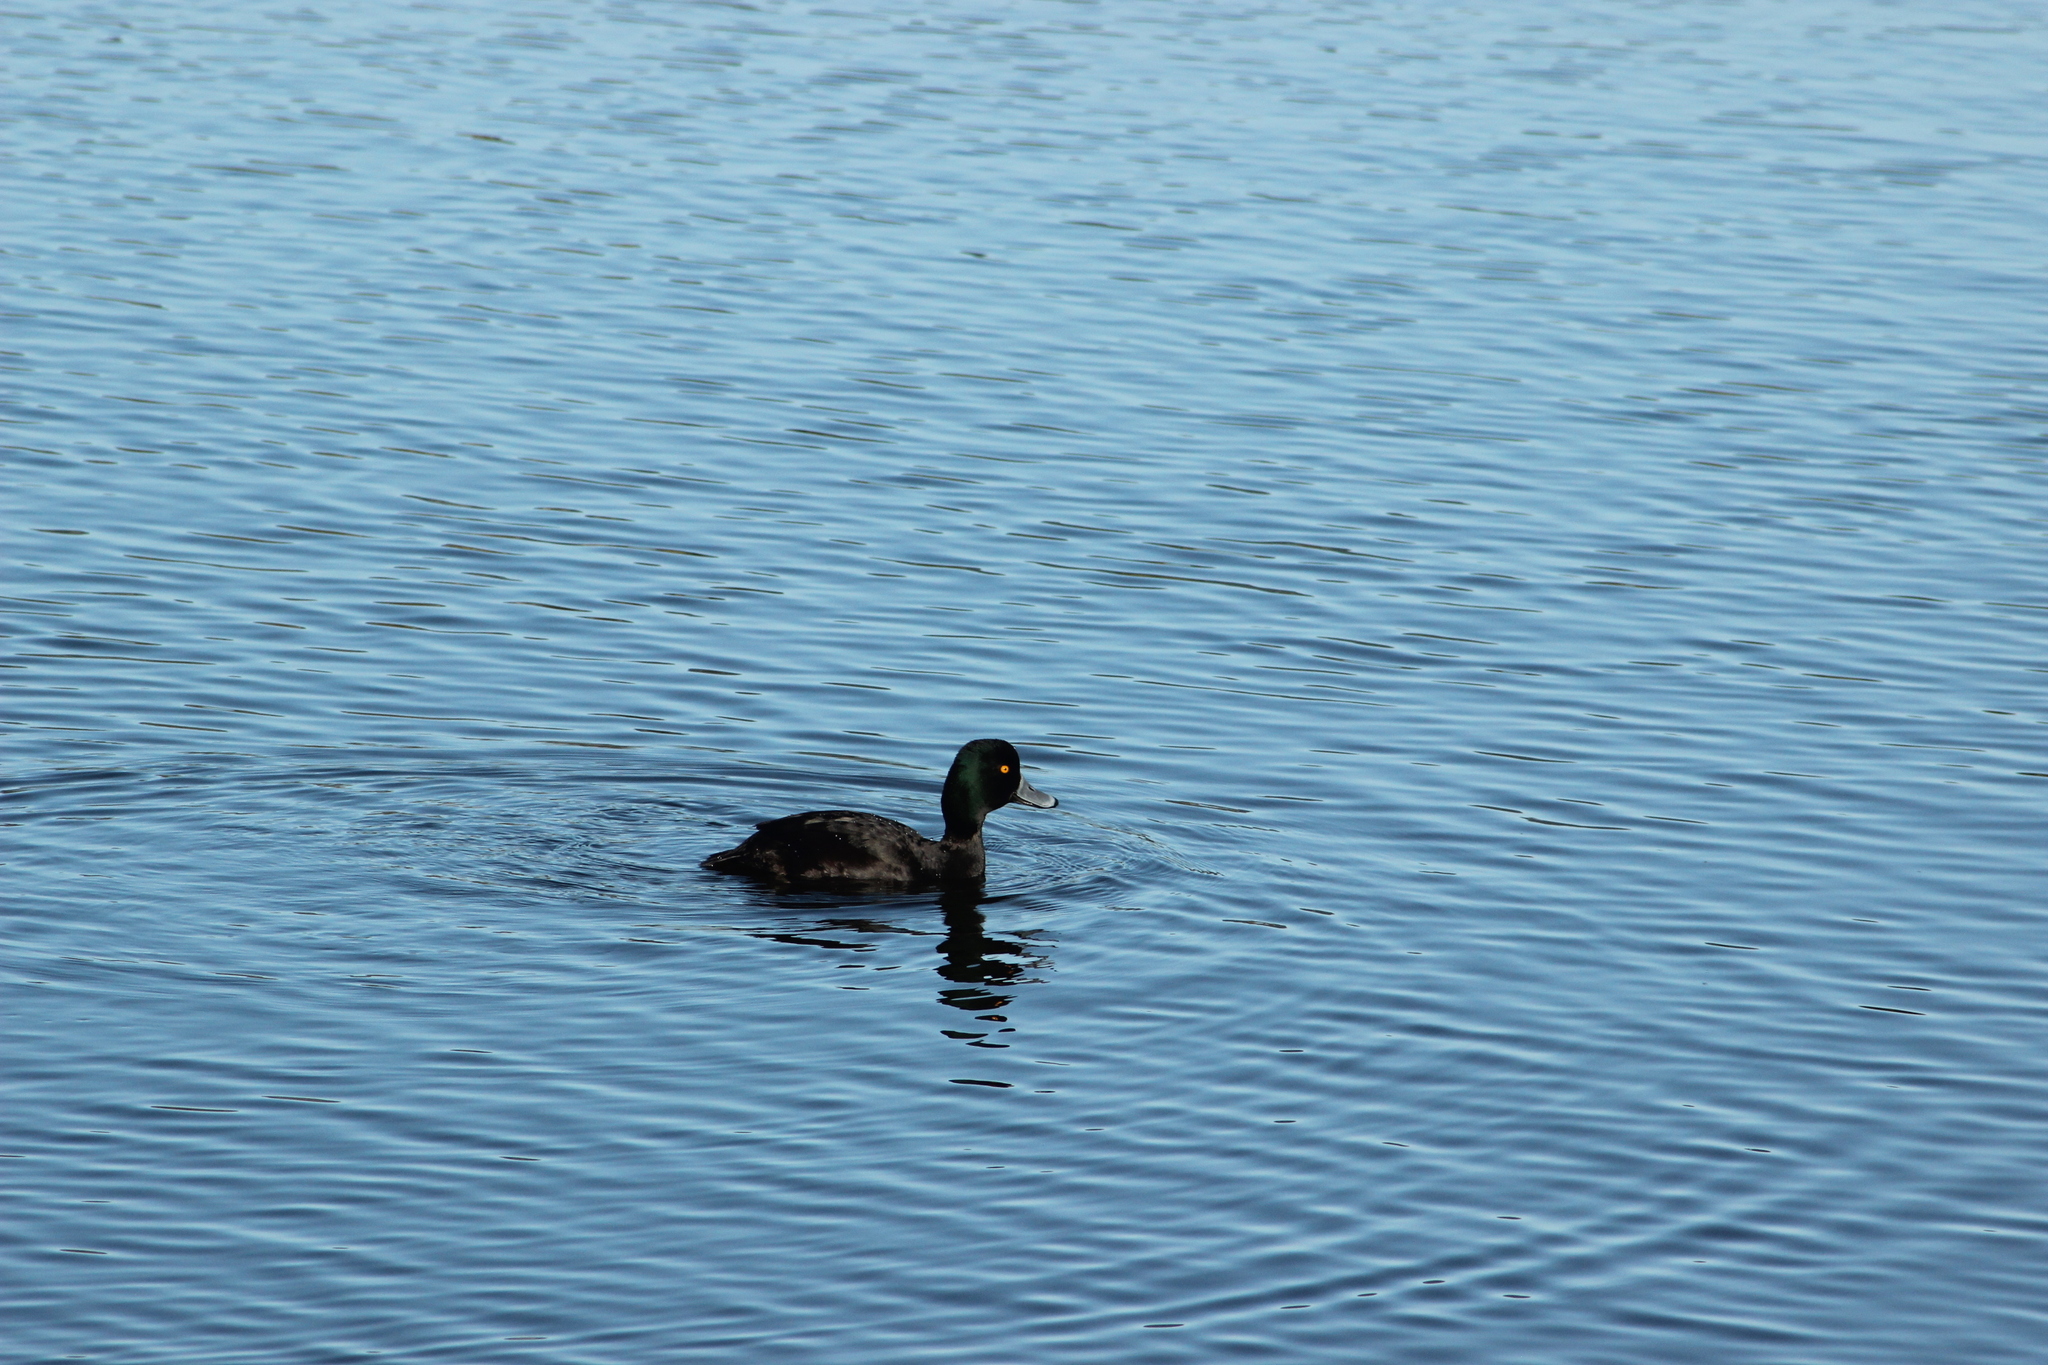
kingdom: Animalia
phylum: Chordata
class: Aves
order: Anseriformes
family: Anatidae
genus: Aythya
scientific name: Aythya novaeseelandiae
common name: New zealand scaup
